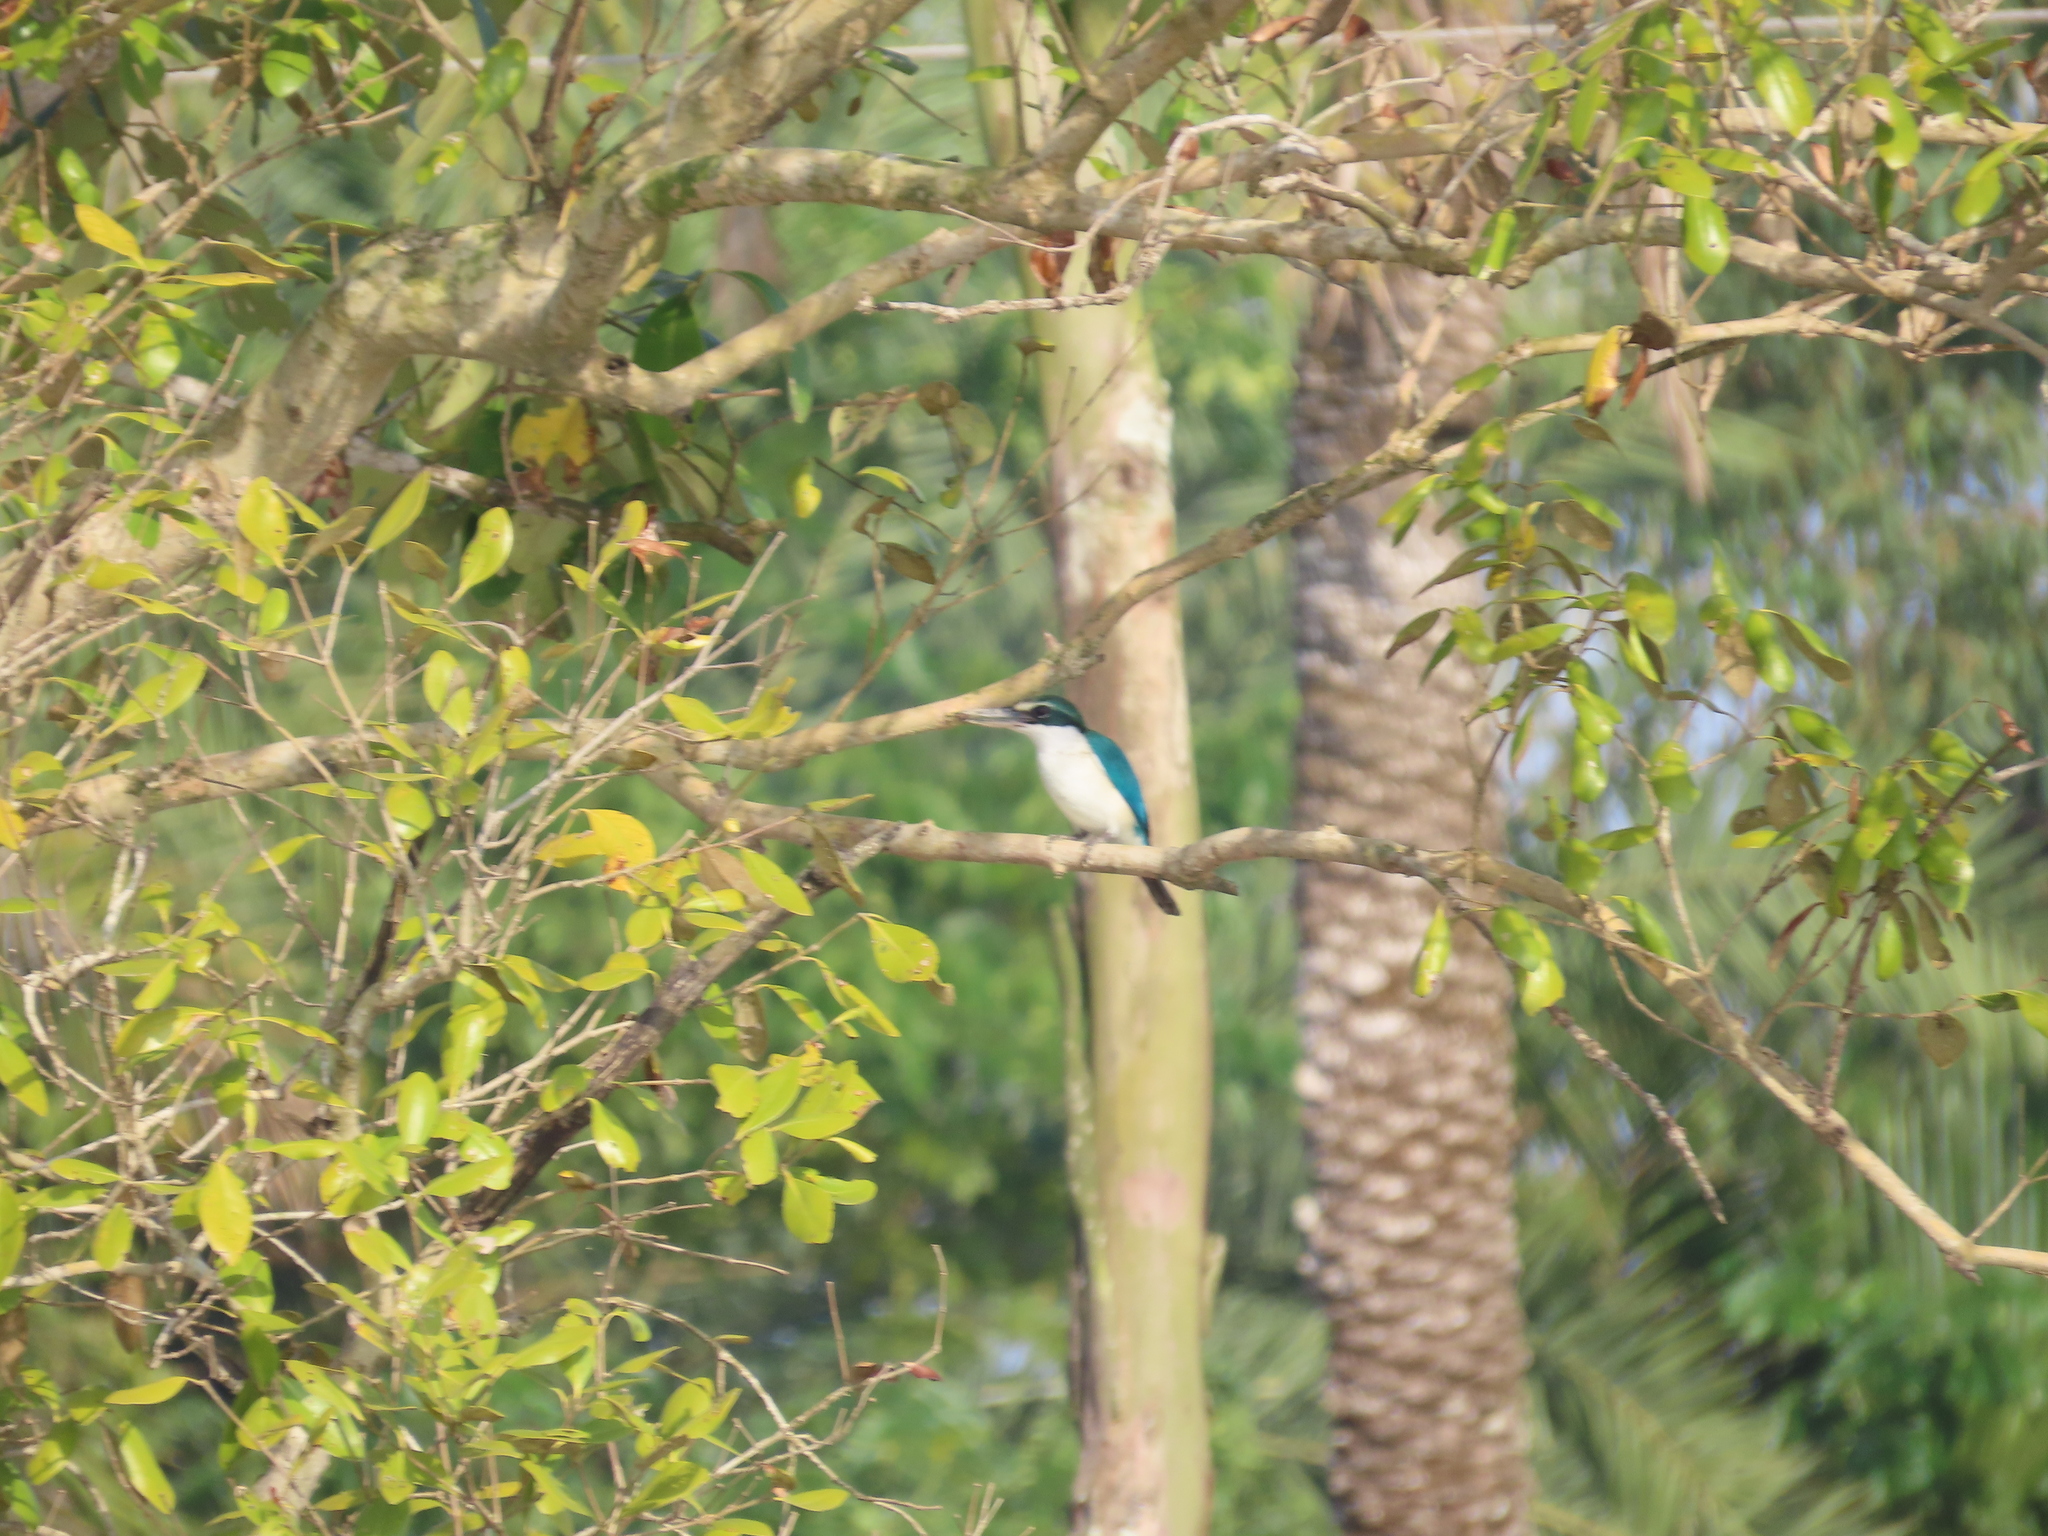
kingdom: Animalia
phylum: Chordata
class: Aves
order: Coraciiformes
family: Alcedinidae
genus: Todiramphus
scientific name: Todiramphus chloris
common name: Collared kingfisher
